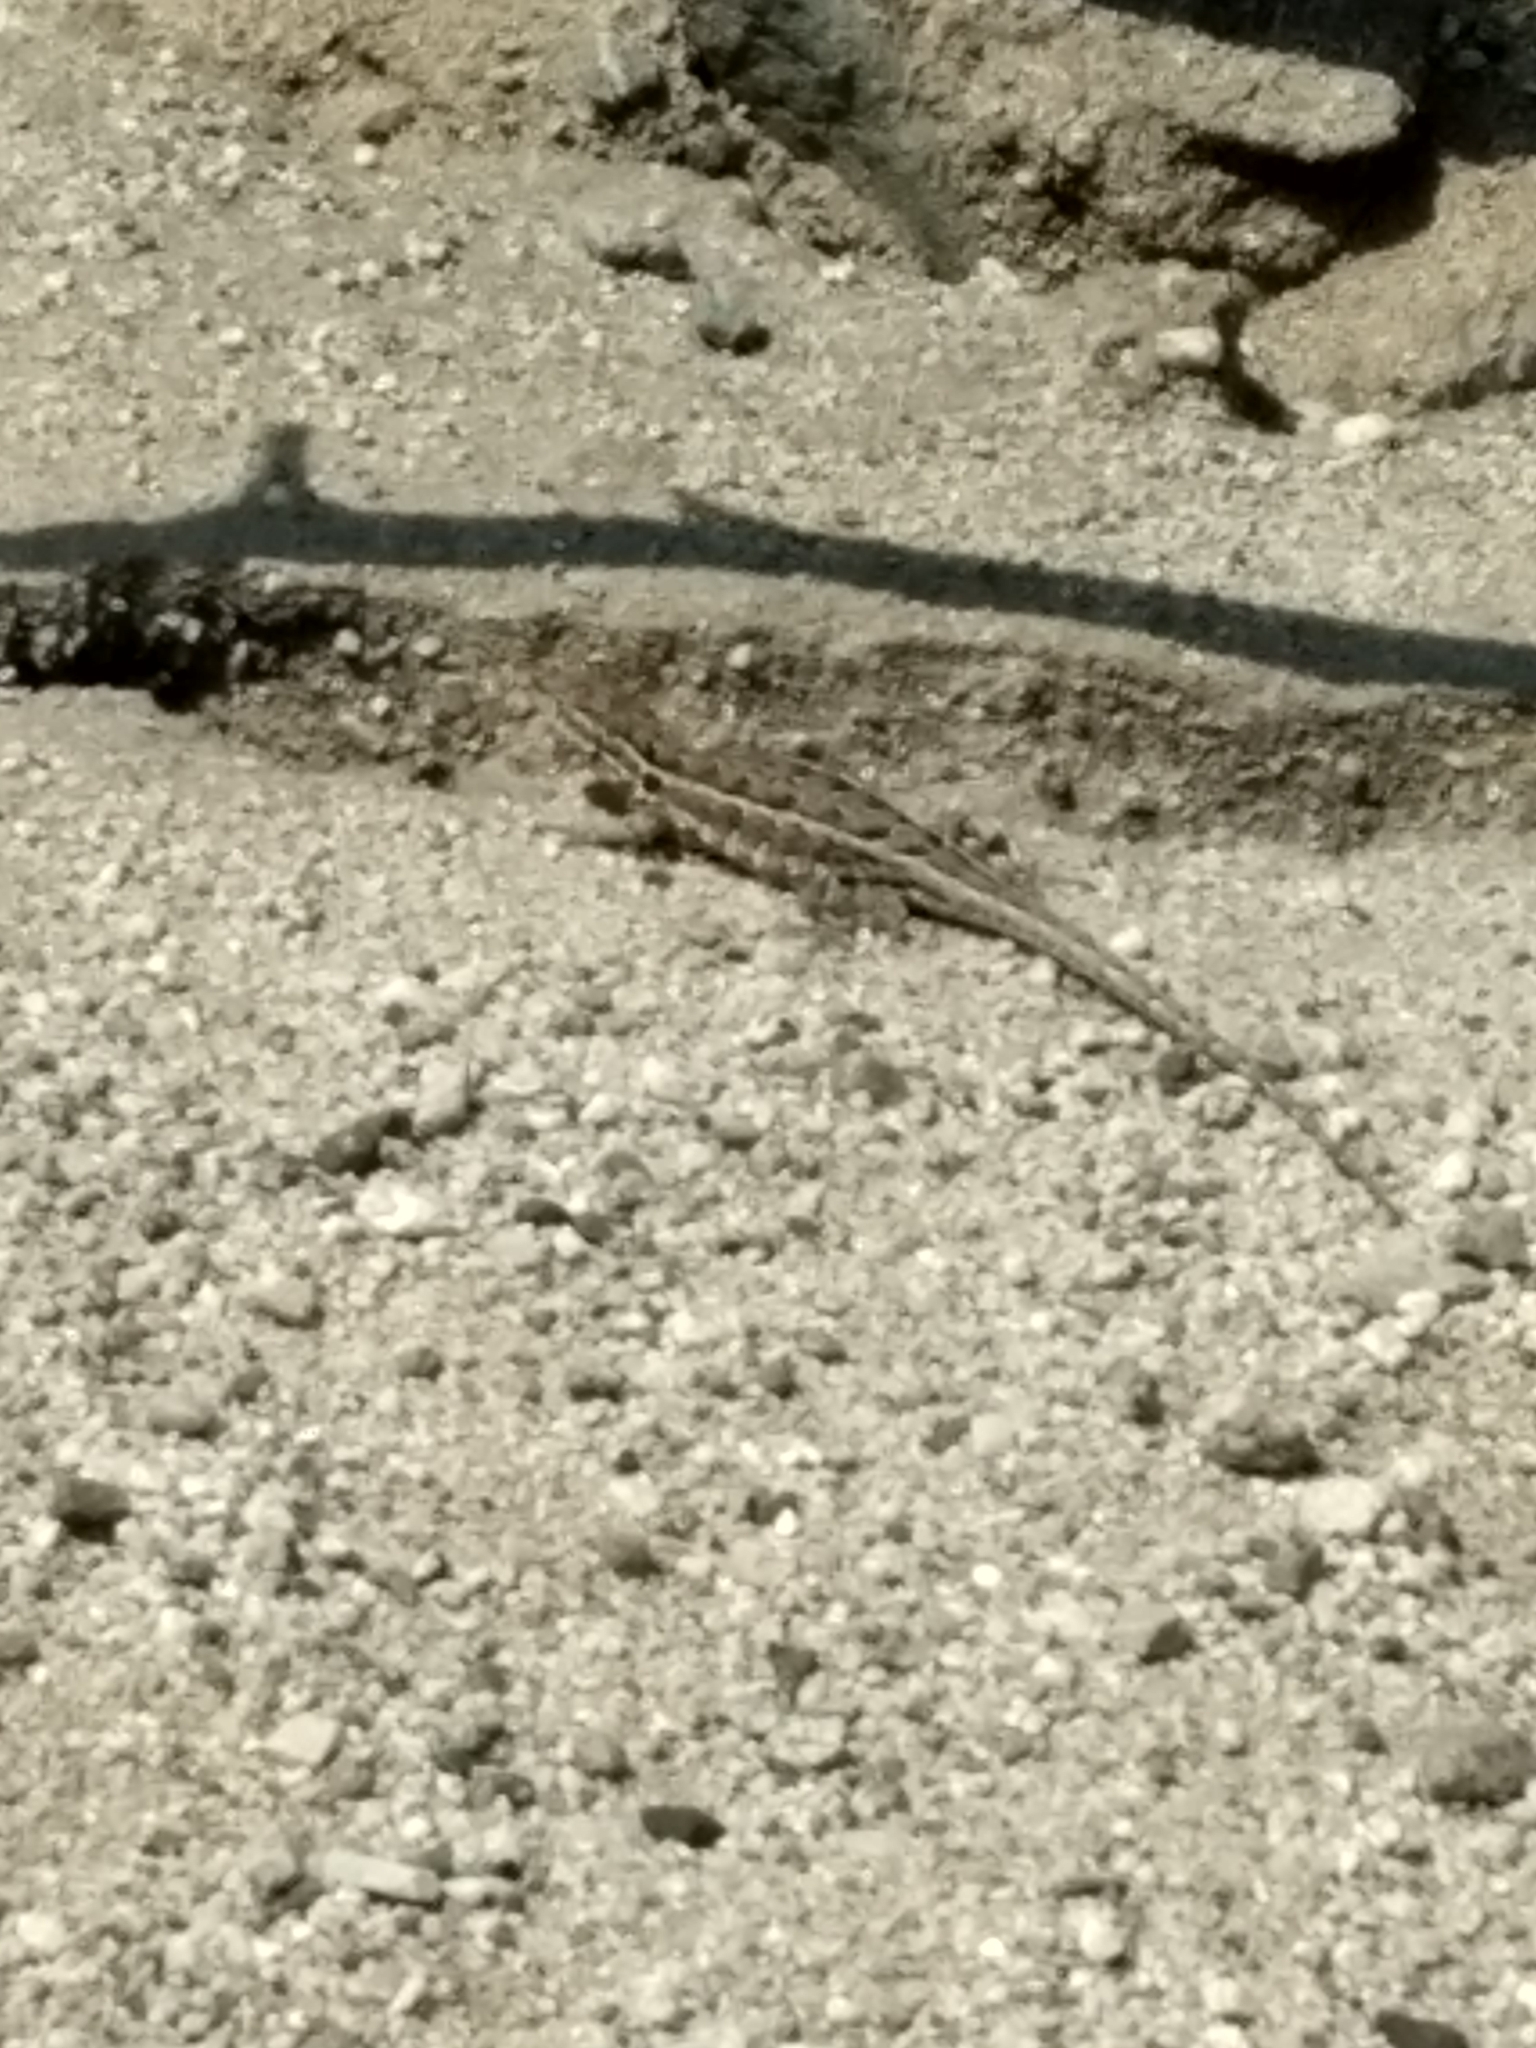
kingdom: Animalia
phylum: Chordata
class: Squamata
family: Phrynosomatidae
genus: Uta
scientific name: Uta stansburiana
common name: Side-blotched lizard
